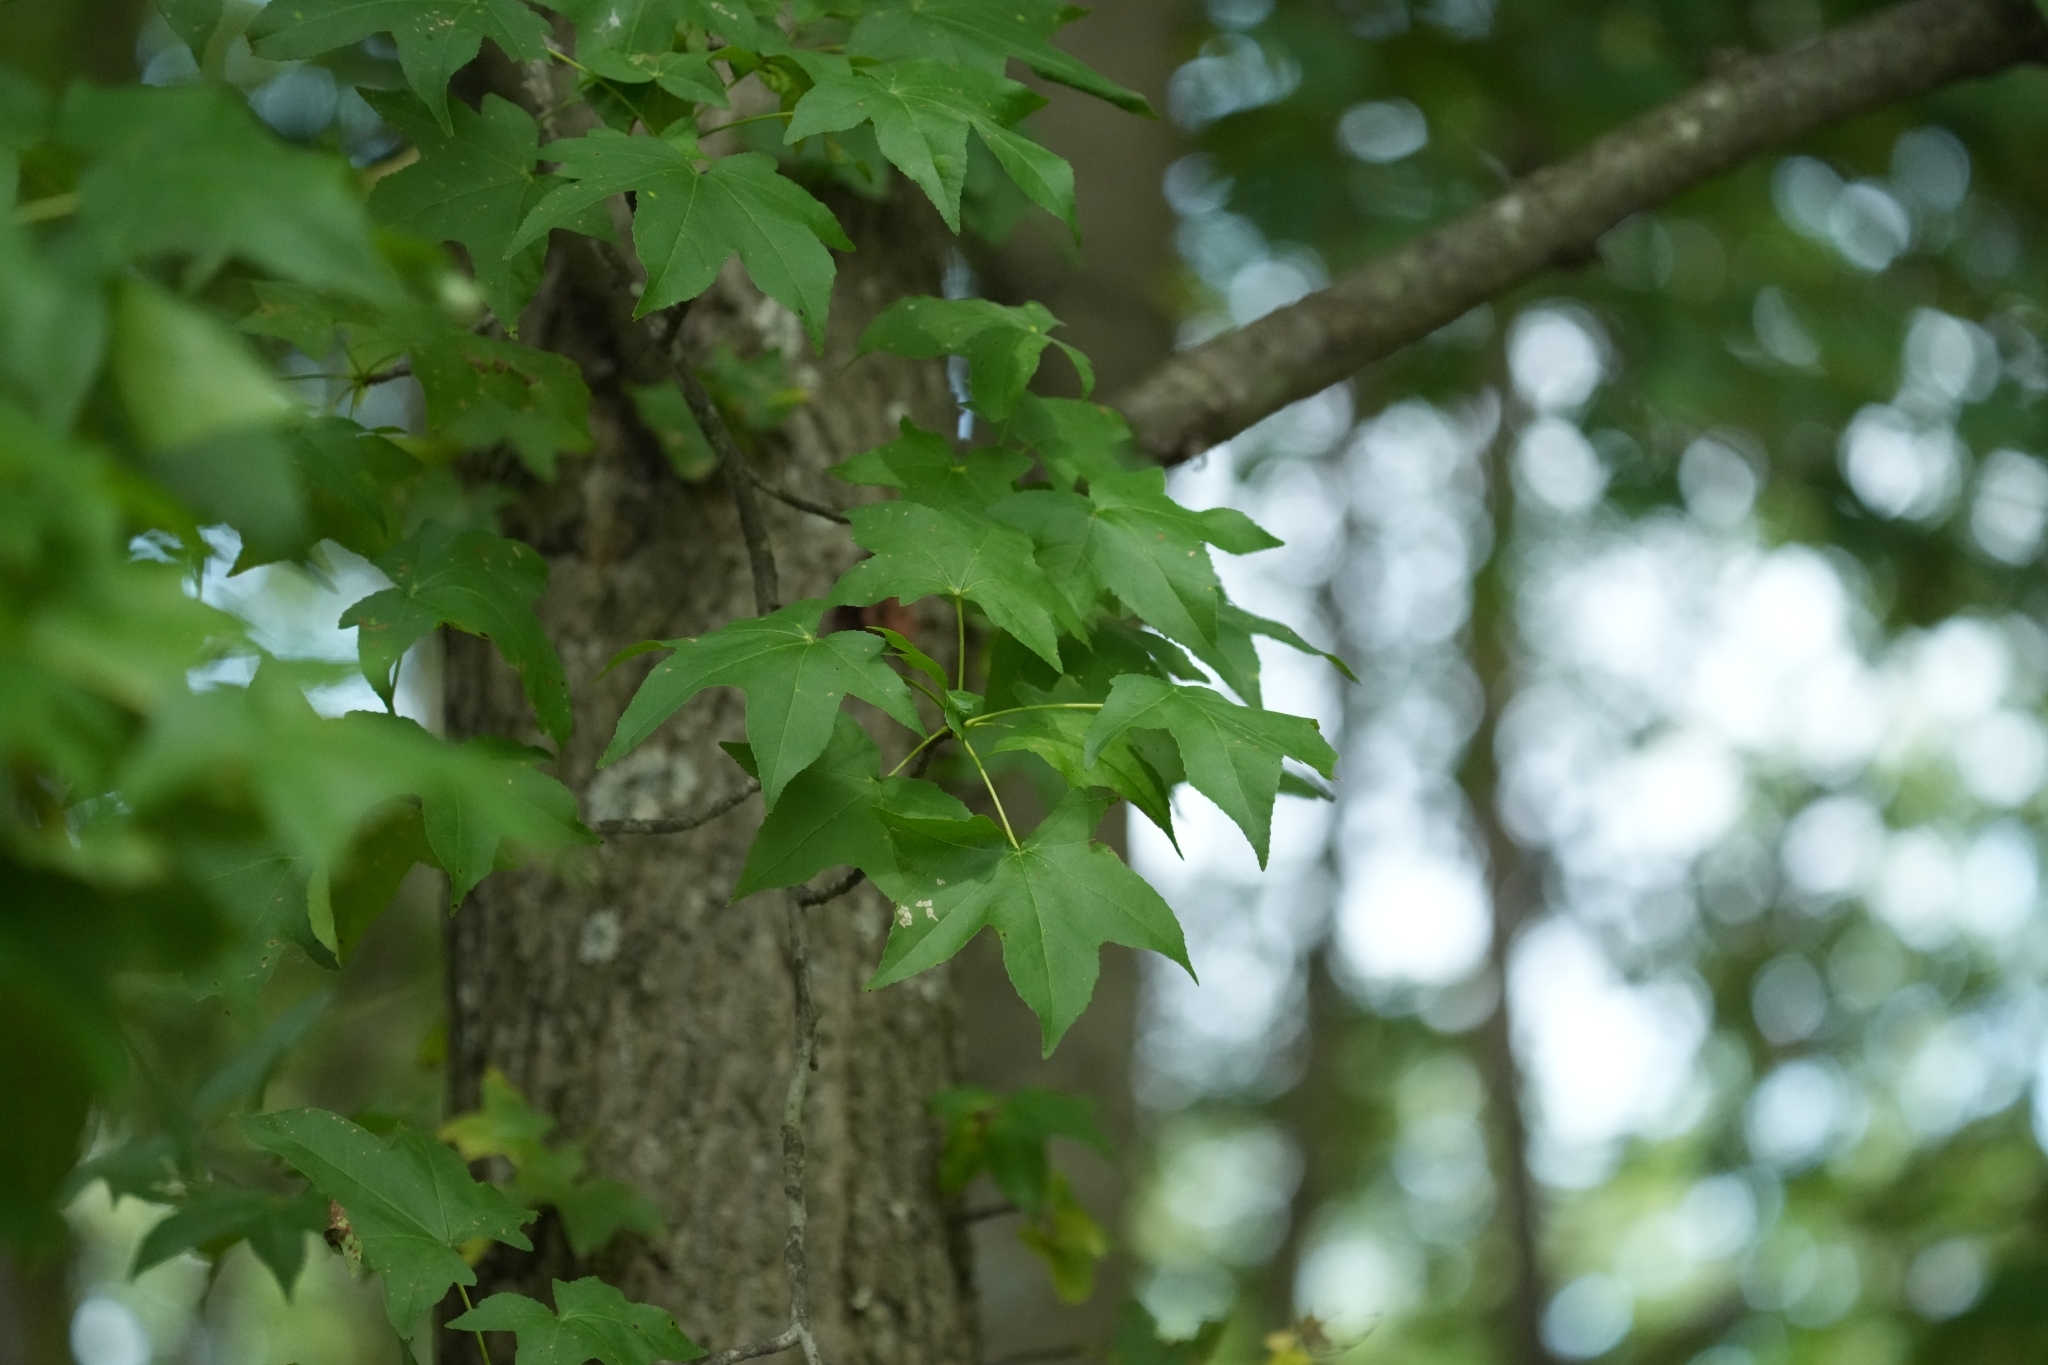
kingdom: Plantae
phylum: Tracheophyta
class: Magnoliopsida
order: Saxifragales
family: Altingiaceae
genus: Liquidambar
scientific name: Liquidambar styraciflua
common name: Sweet gum
